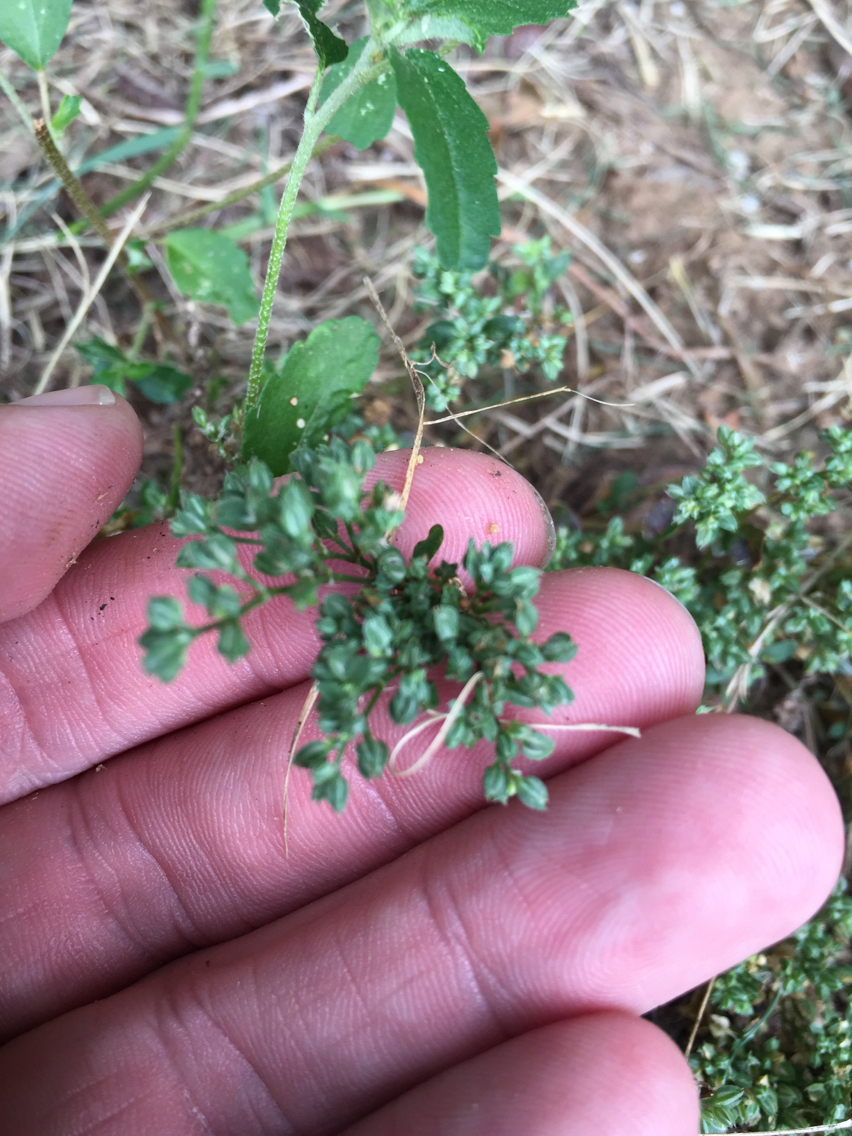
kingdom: Plantae
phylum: Tracheophyta
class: Magnoliopsida
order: Caryophyllales
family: Caryophyllaceae
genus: Polycarpon
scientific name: Polycarpon tetraphyllum
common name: Four-leaved all-seed
